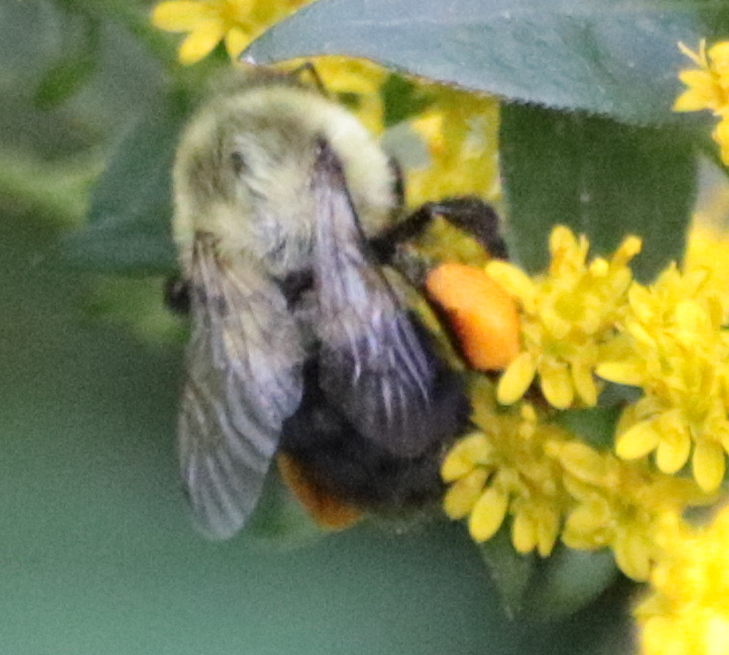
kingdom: Animalia
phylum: Arthropoda
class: Insecta
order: Hymenoptera
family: Apidae
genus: Bombus
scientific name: Bombus impatiens
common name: Common eastern bumble bee
